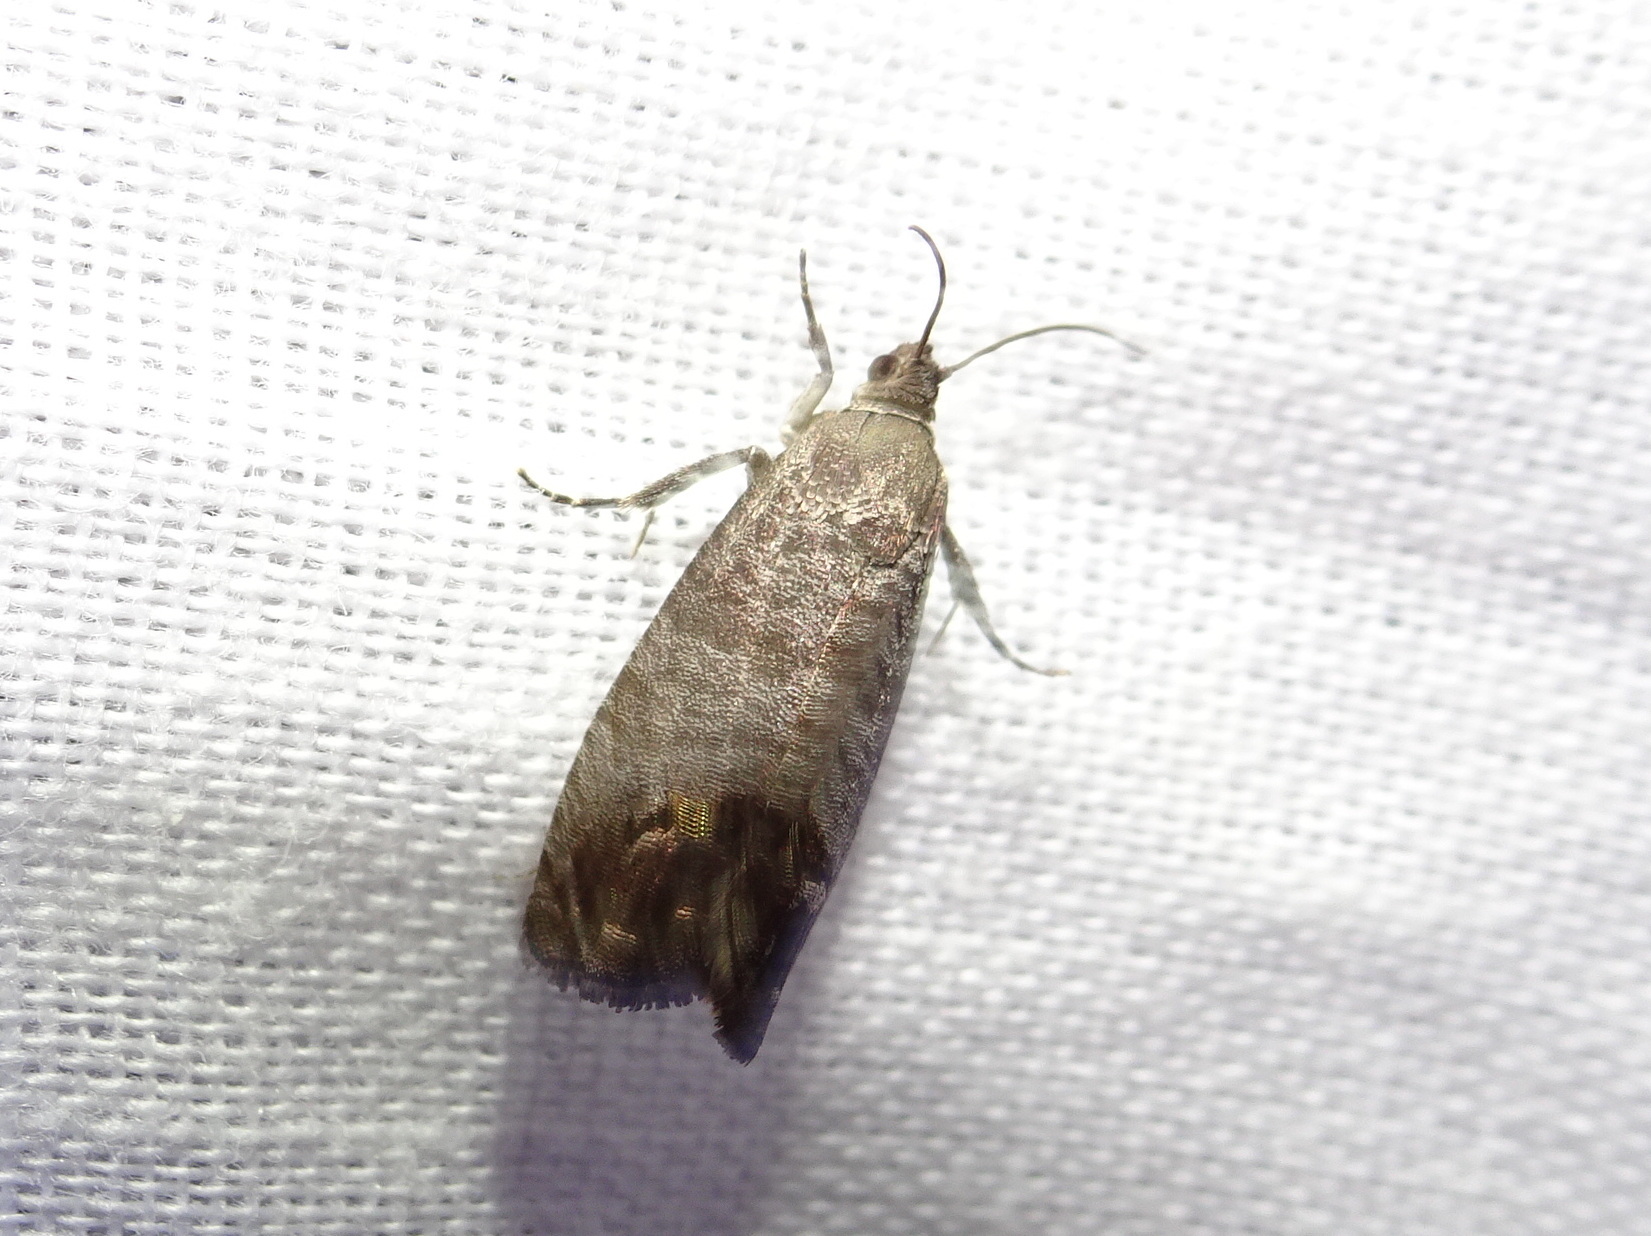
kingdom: Animalia
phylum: Arthropoda
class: Insecta
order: Lepidoptera
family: Tortricidae
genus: Cydia
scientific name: Cydia pomonella
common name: Codling moth
